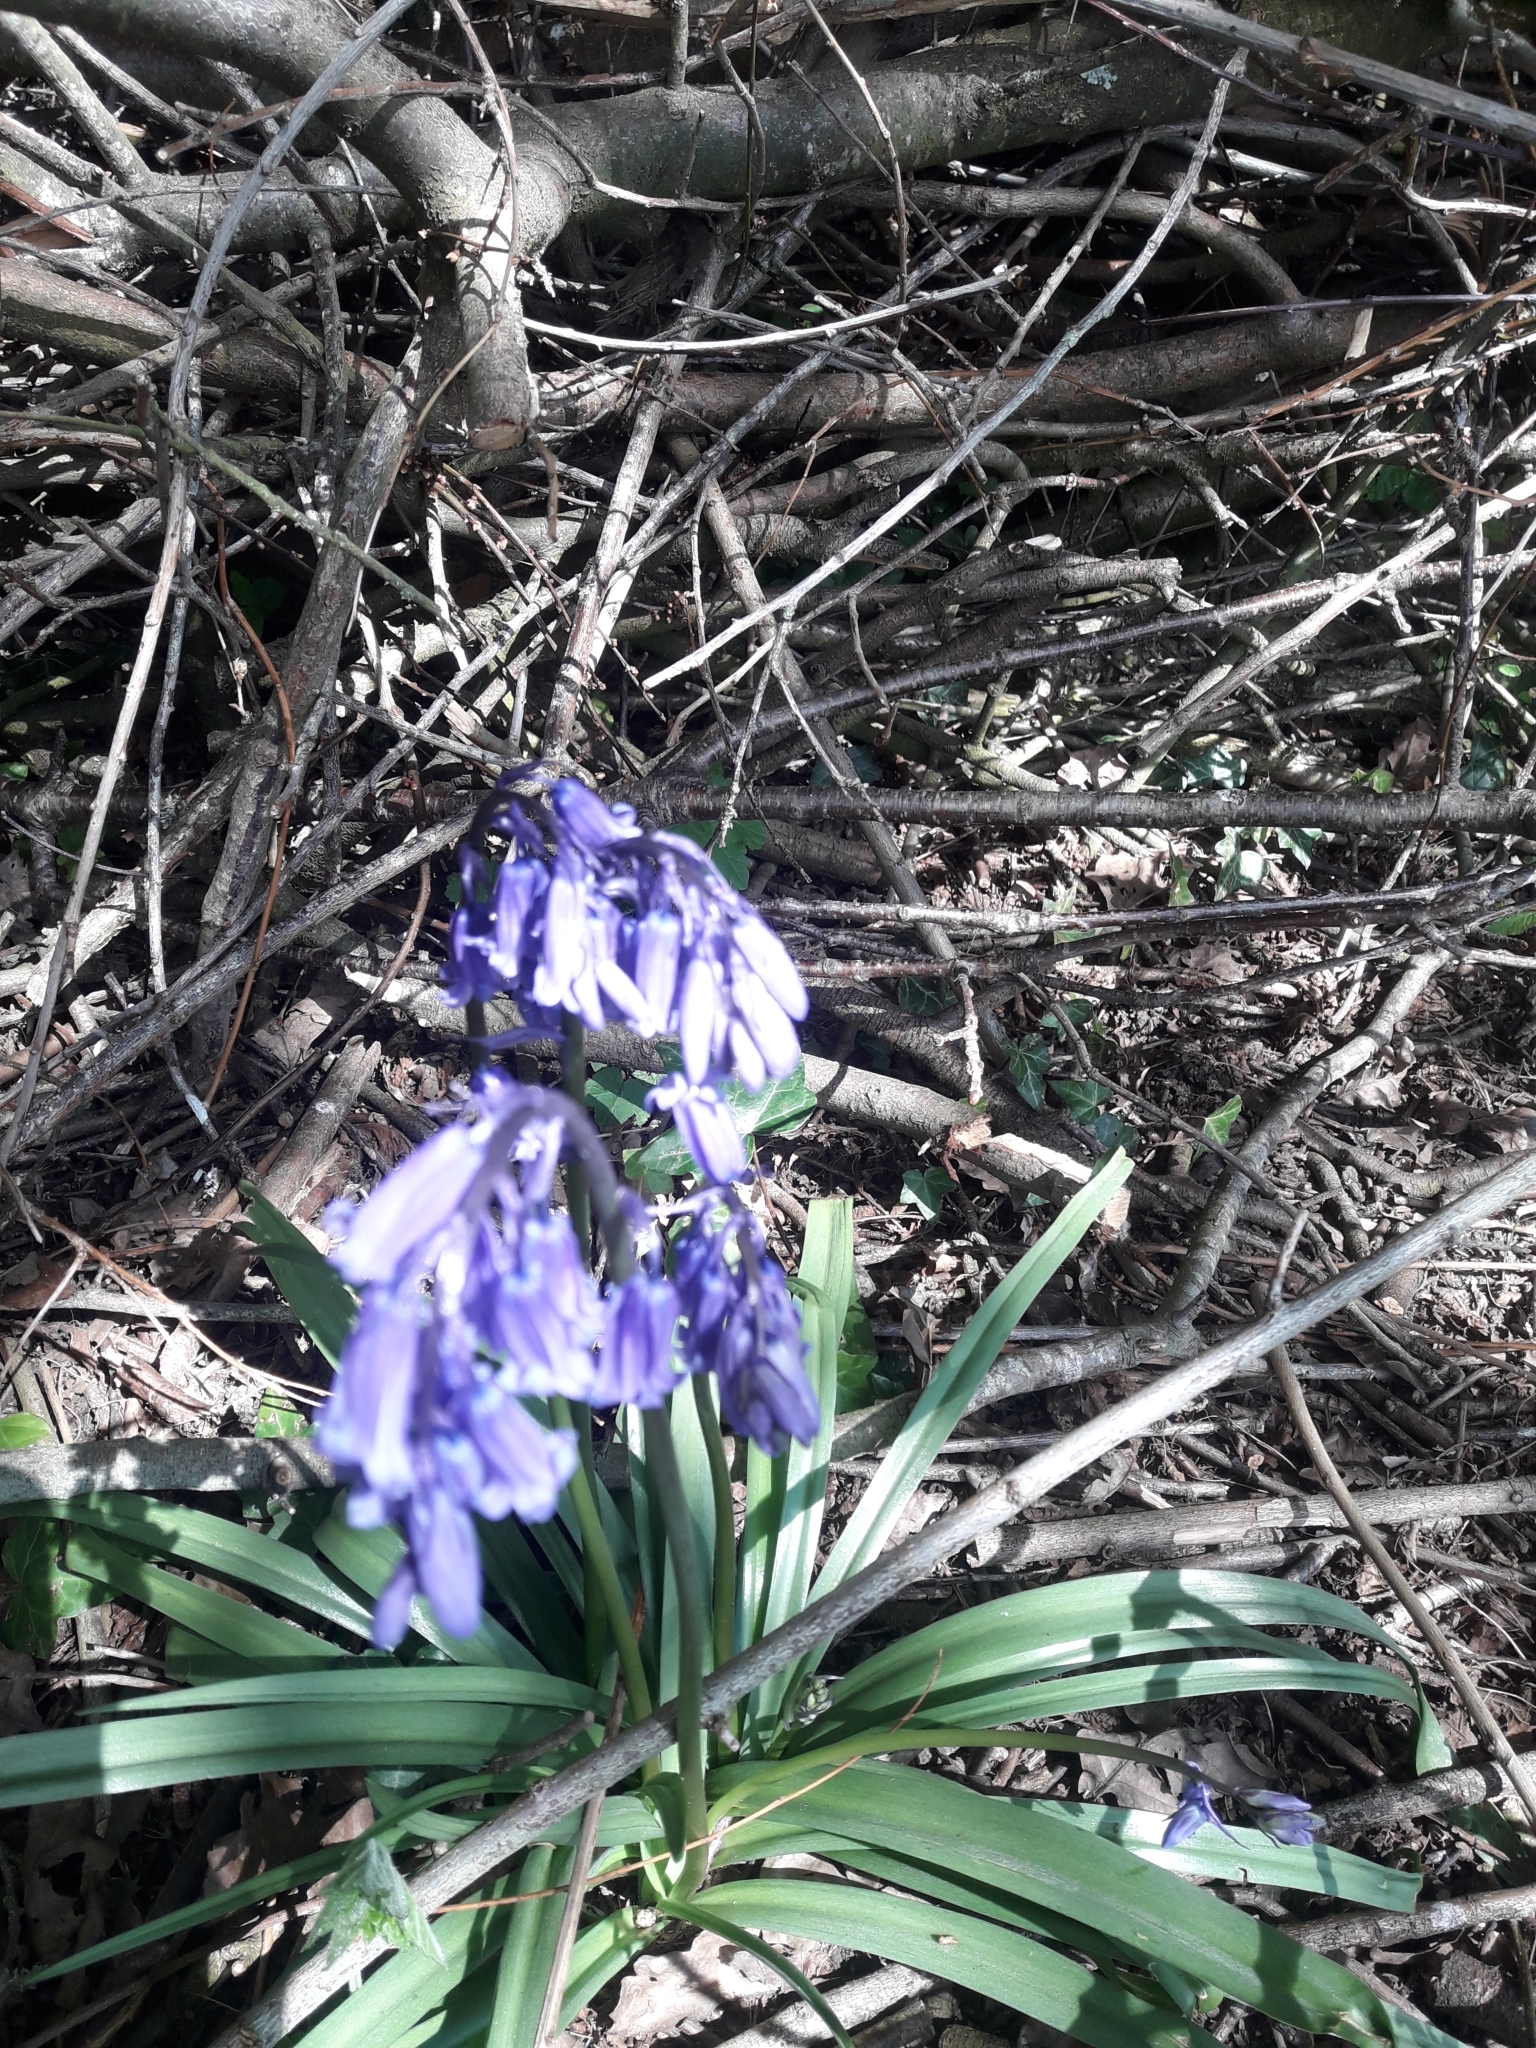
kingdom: Plantae
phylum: Tracheophyta
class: Liliopsida
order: Asparagales
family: Asparagaceae
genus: Hyacinthoides
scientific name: Hyacinthoides non-scripta
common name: Bluebell
